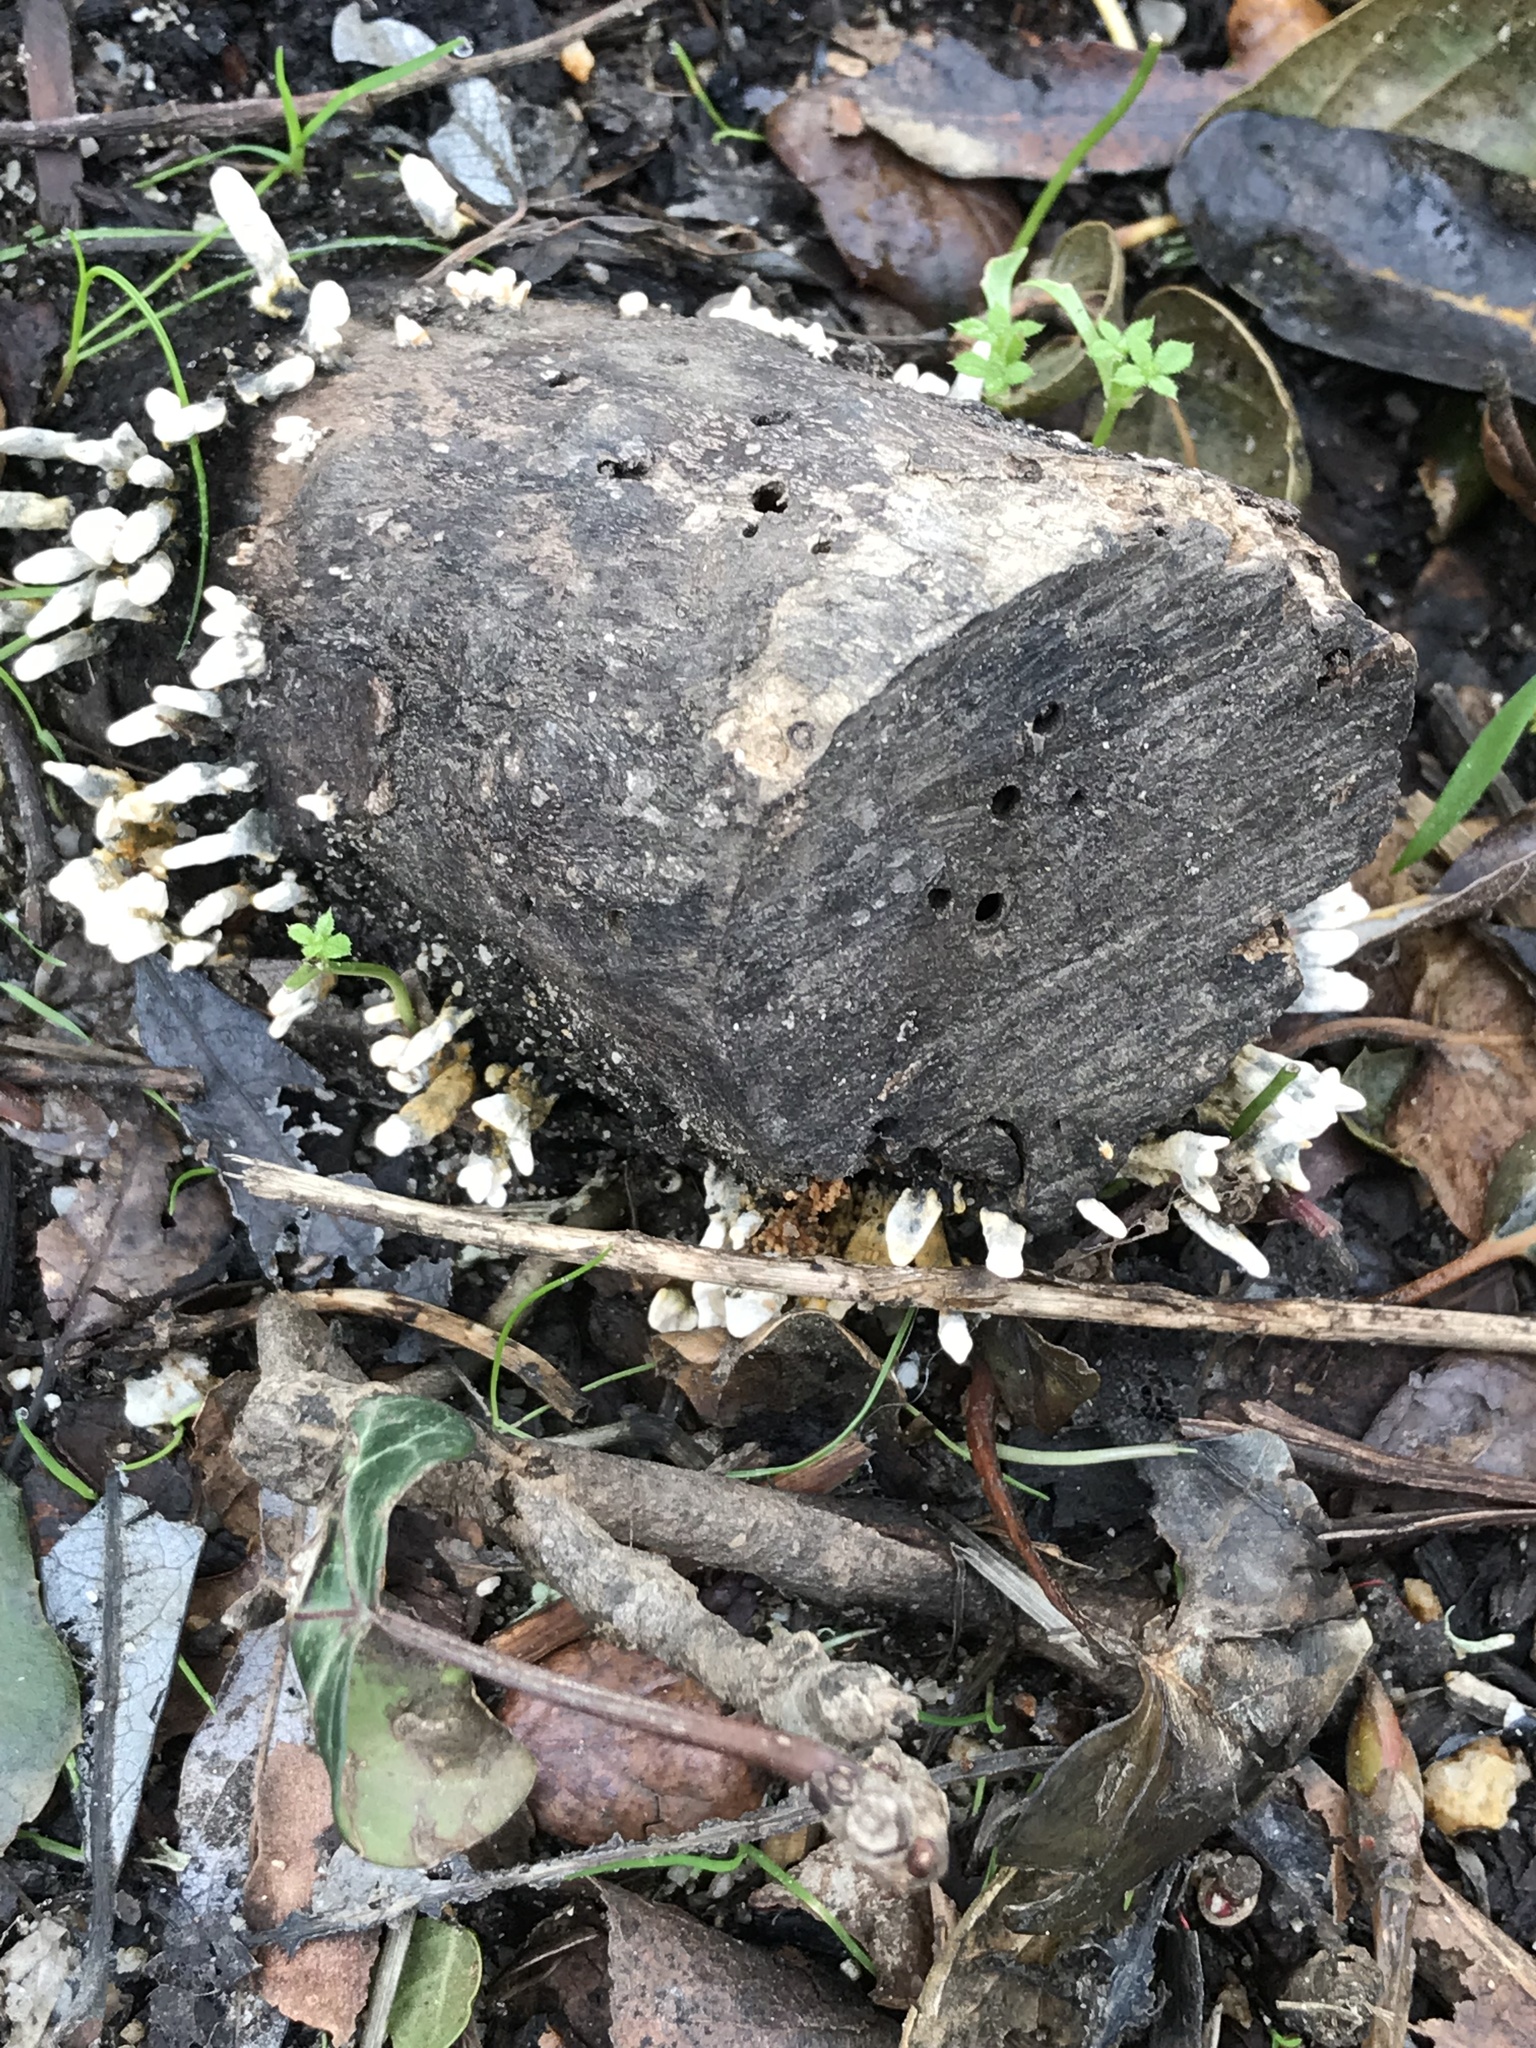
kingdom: Fungi
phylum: Ascomycota
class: Sordariomycetes
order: Xylariales
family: Xylariaceae
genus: Xylaria
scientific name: Xylaria hypoxylon
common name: Candle-snuff fungus
